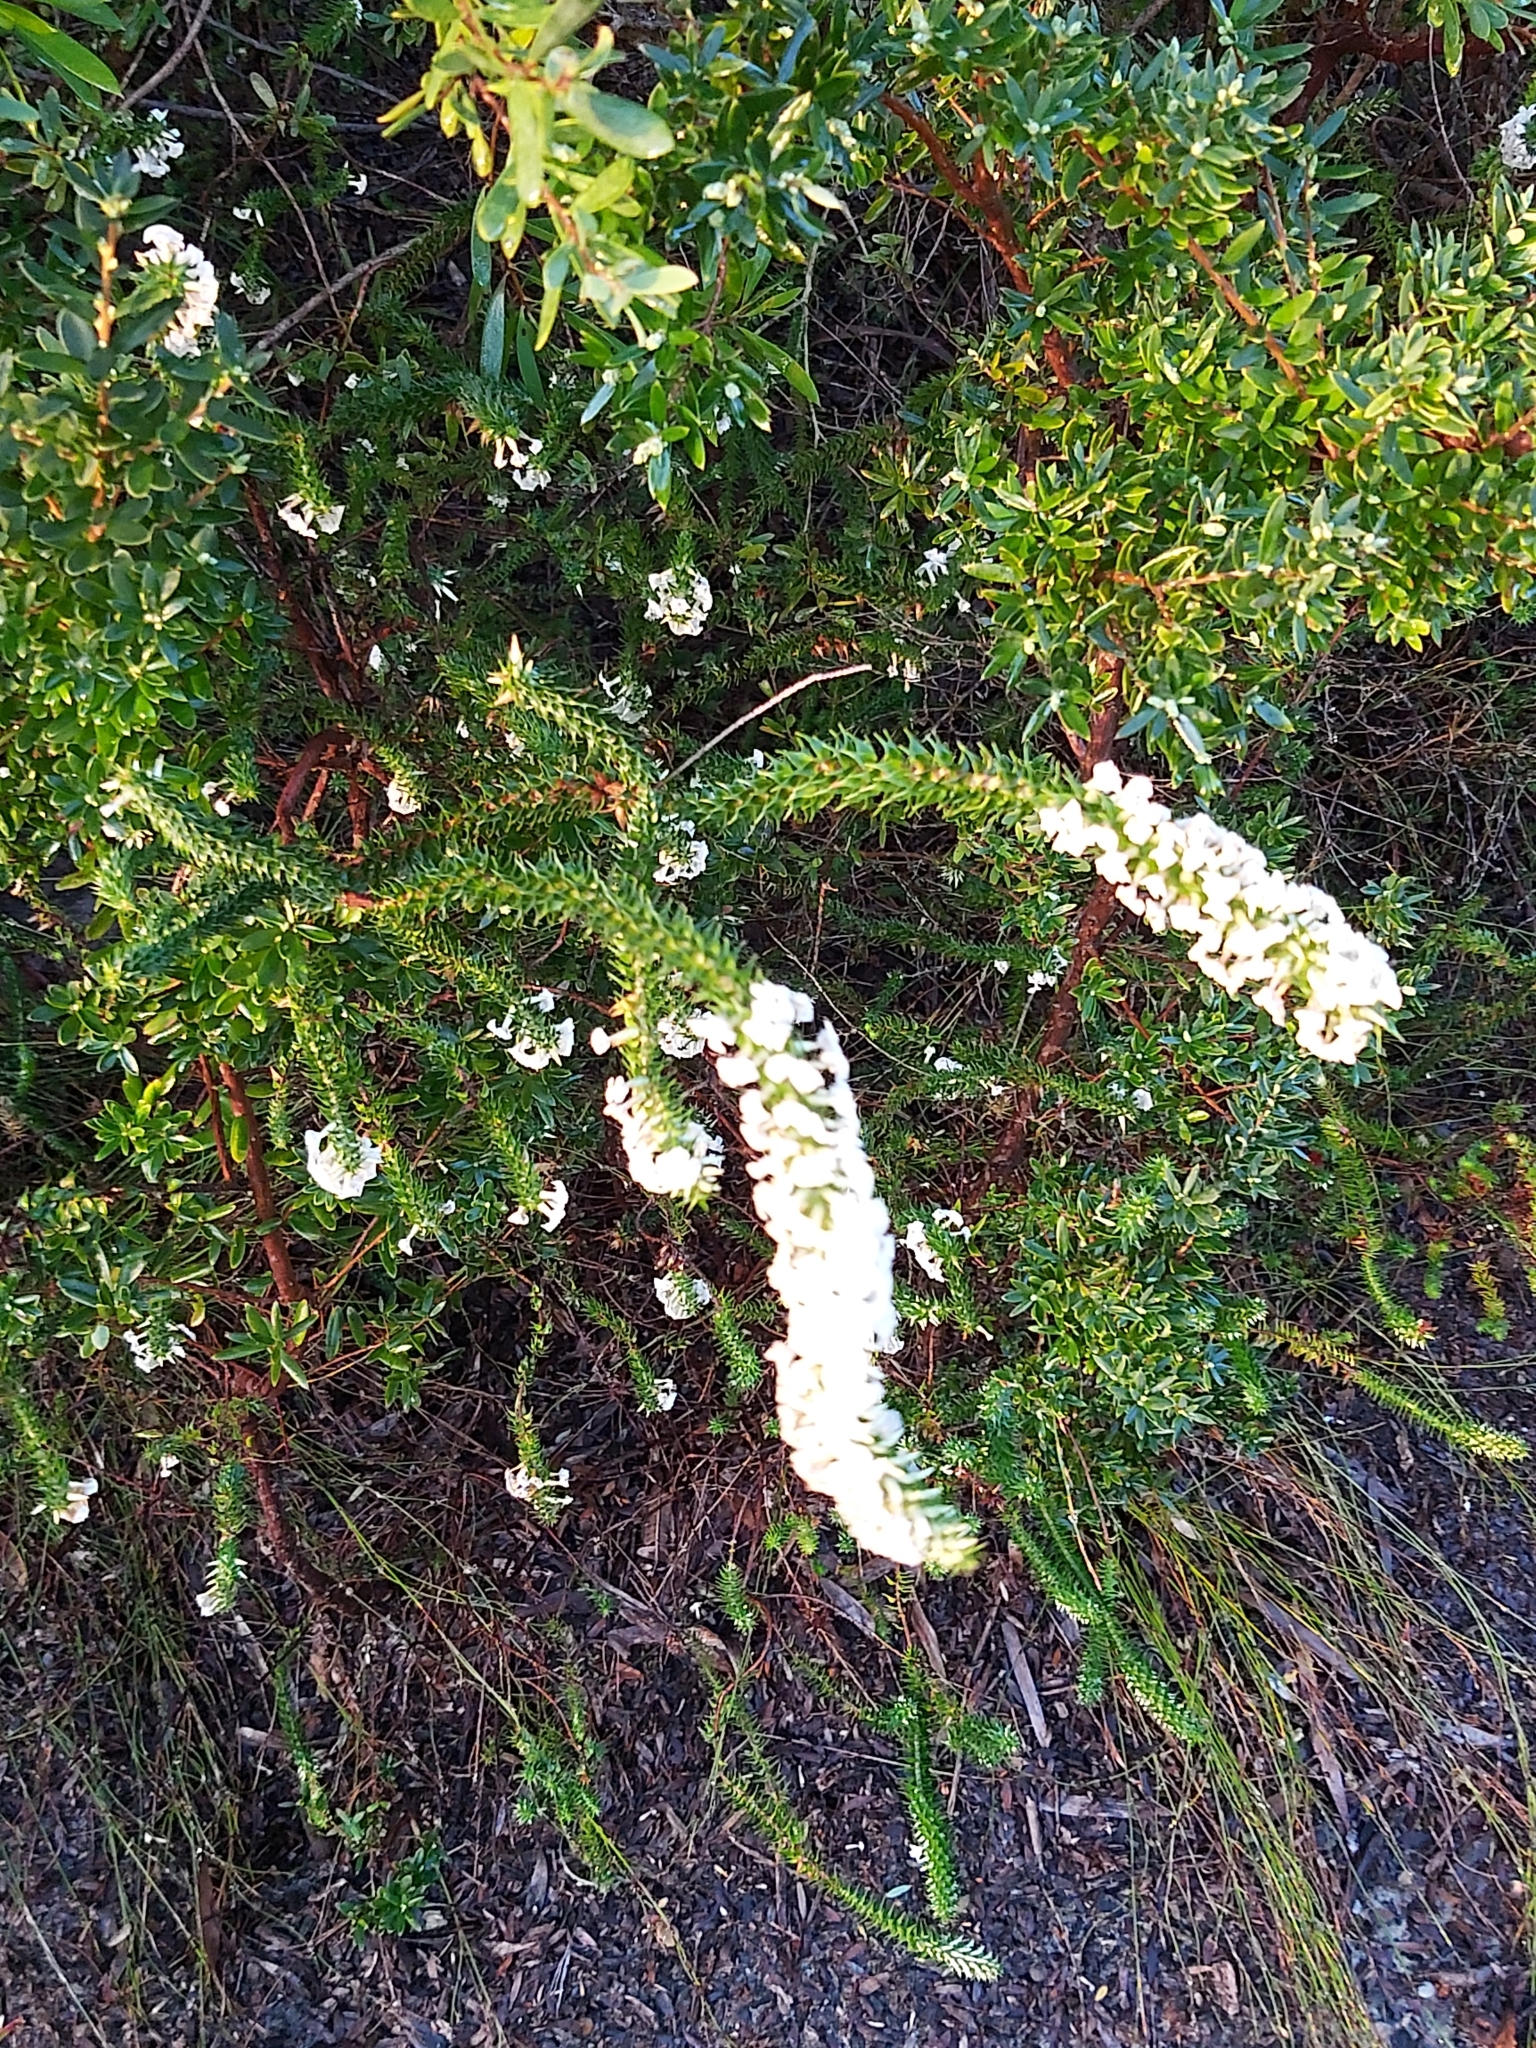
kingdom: Plantae
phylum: Tracheophyta
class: Magnoliopsida
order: Ericales
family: Ericaceae
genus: Woollsia
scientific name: Woollsia pungens
